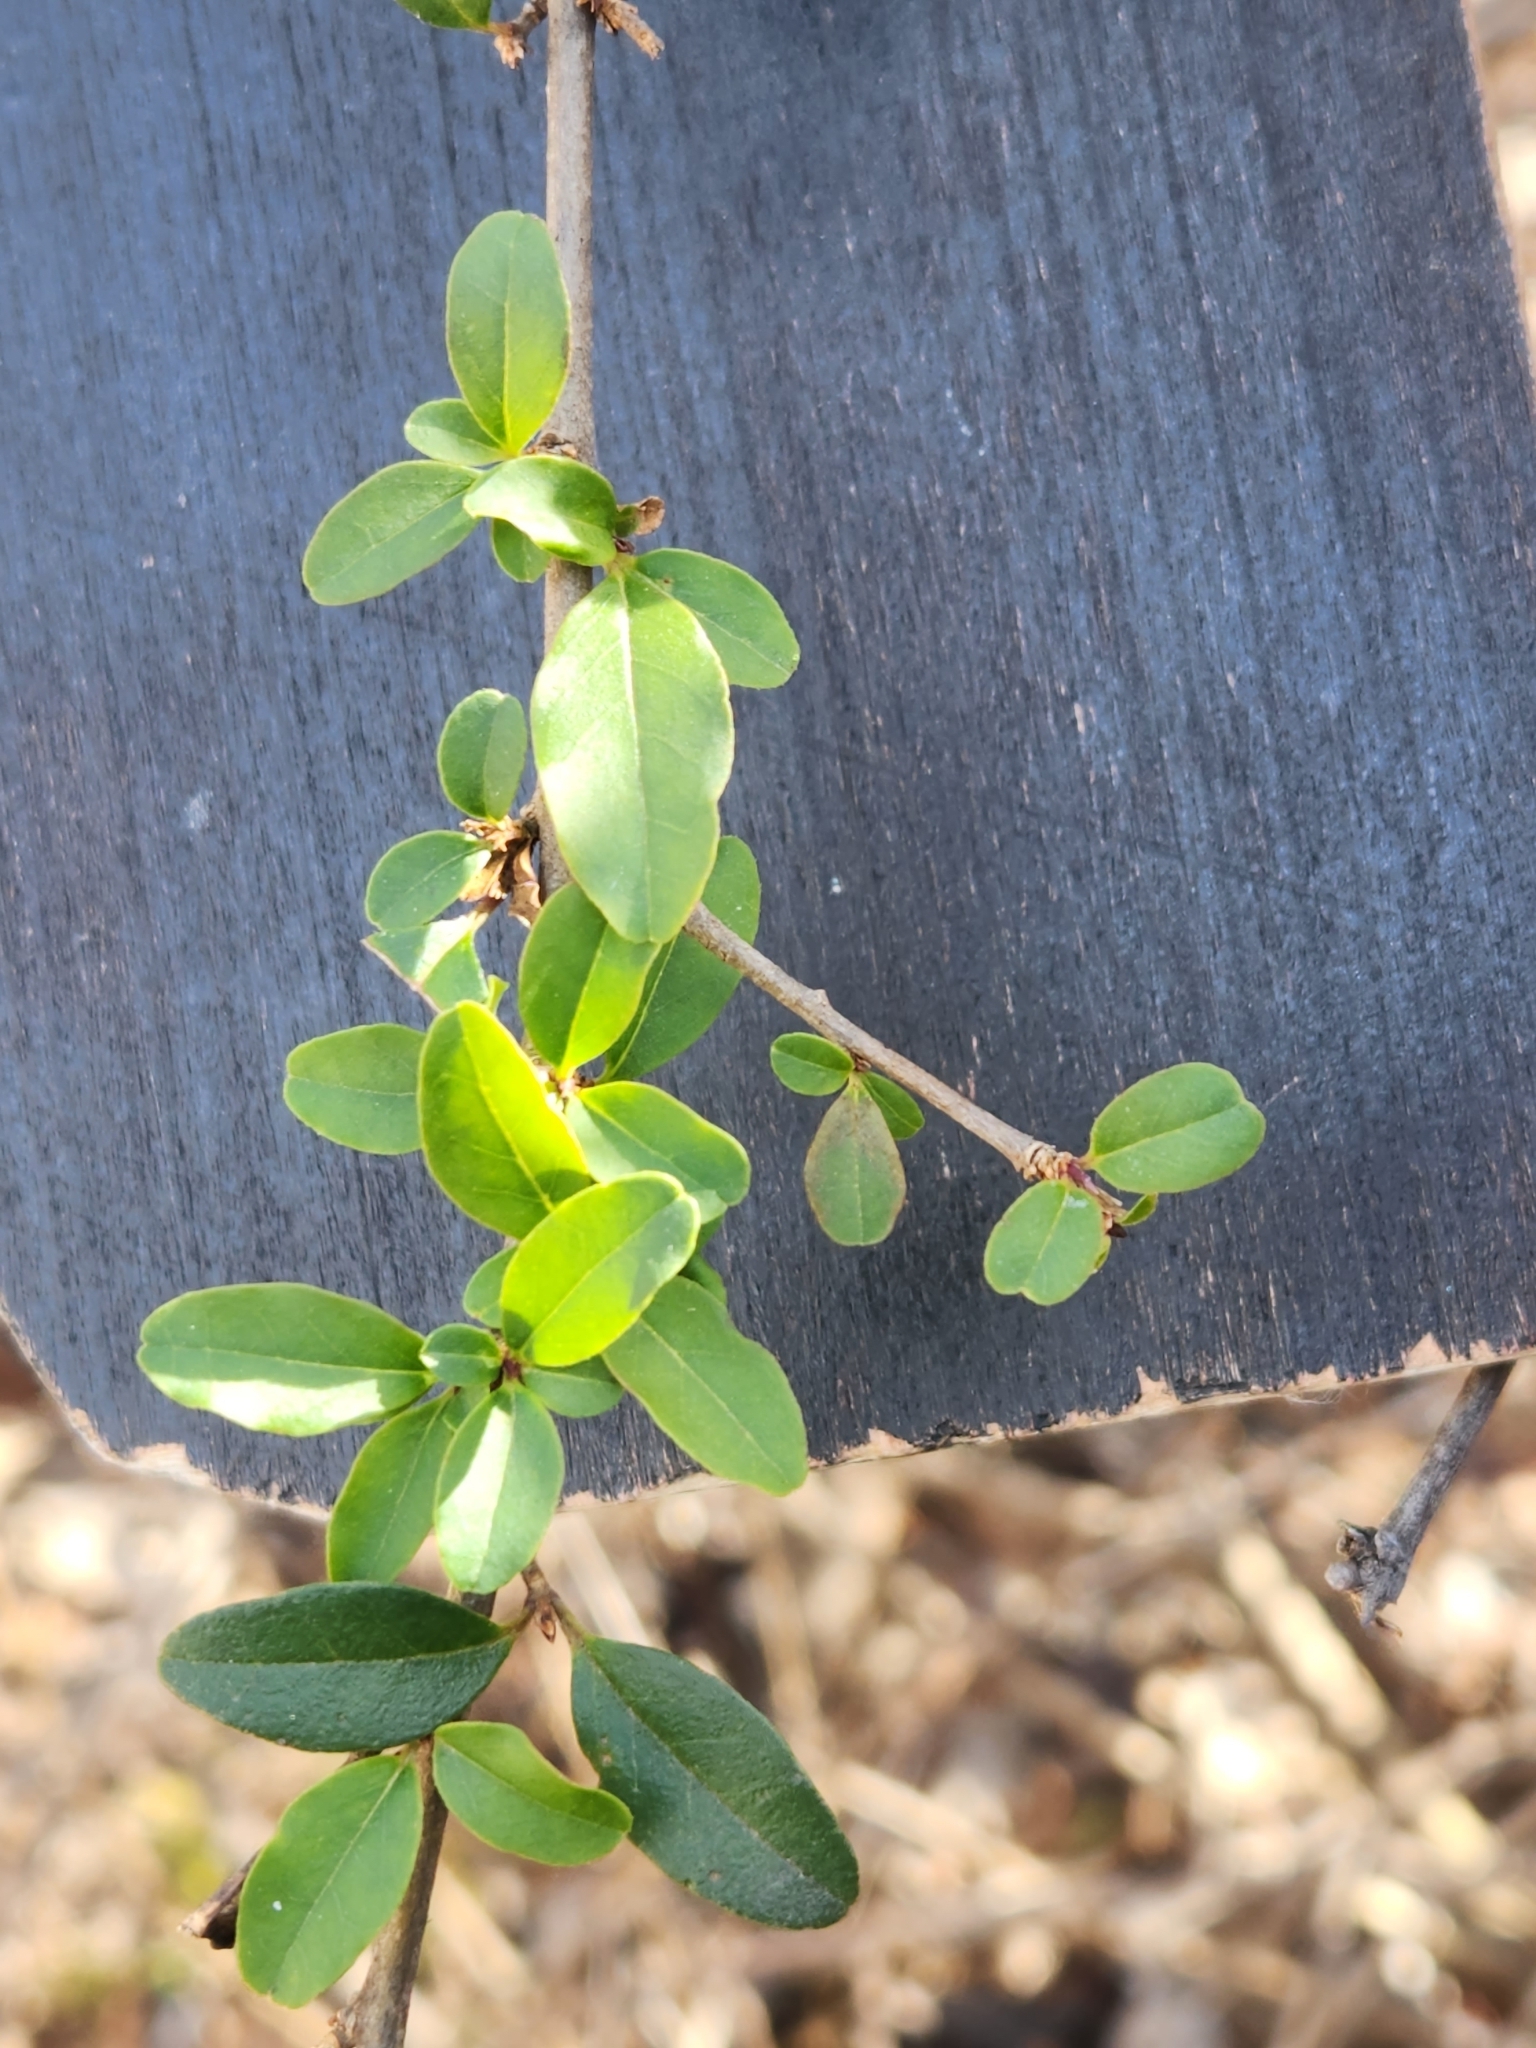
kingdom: Plantae
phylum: Tracheophyta
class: Magnoliopsida
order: Lamiales
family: Oleaceae
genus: Forestiera
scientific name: Forestiera pubescens
